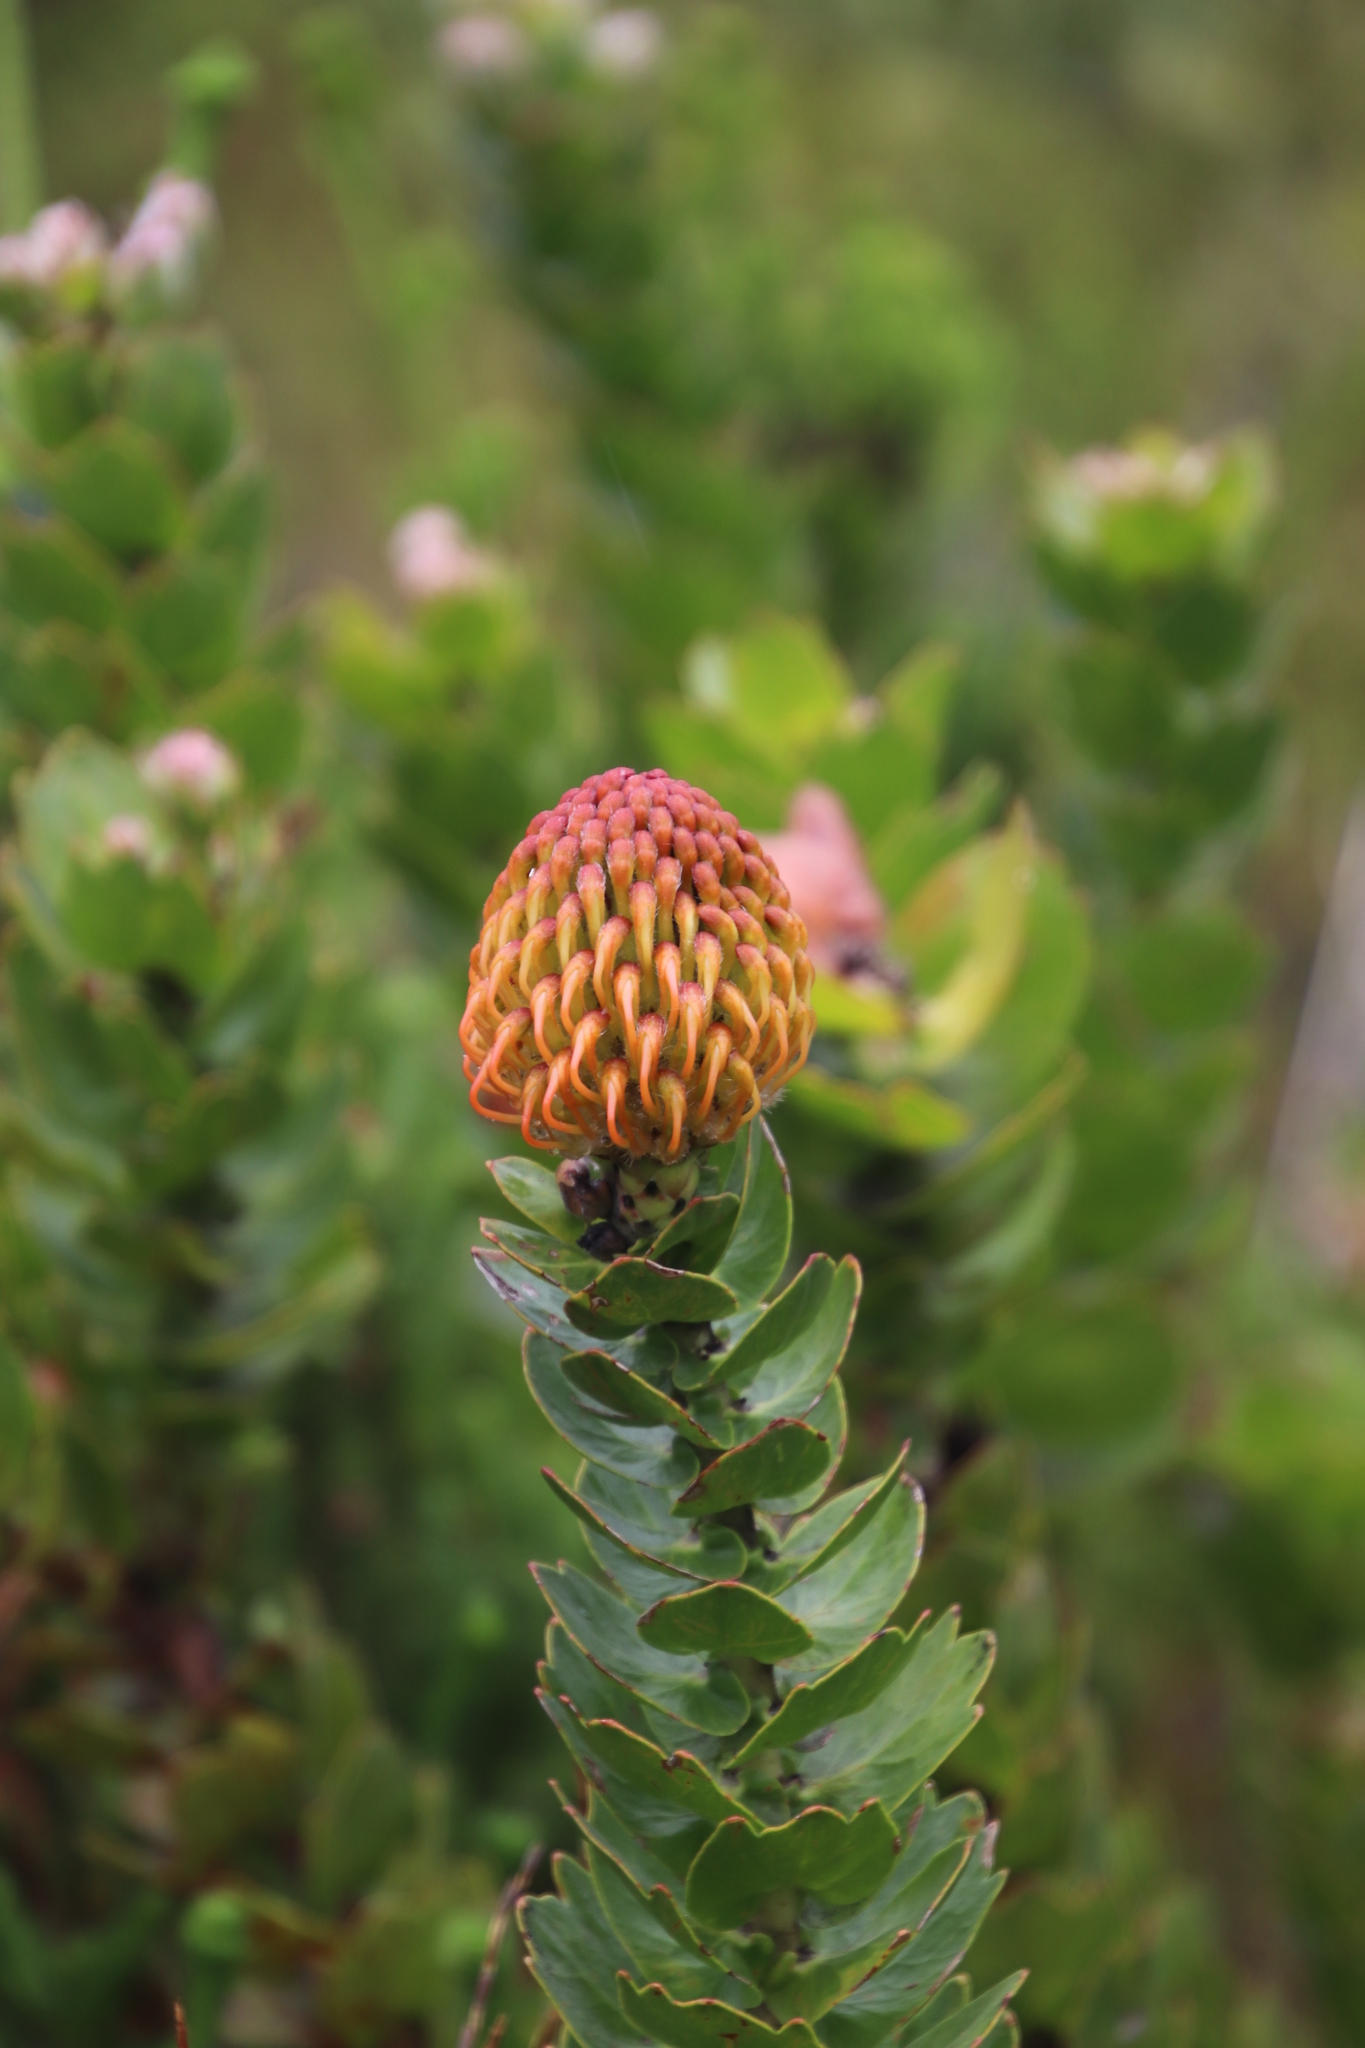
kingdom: Plantae
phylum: Tracheophyta
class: Magnoliopsida
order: Proteales
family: Proteaceae
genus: Leucospermum
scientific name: Leucospermum patersonii
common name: False tree pincushion
